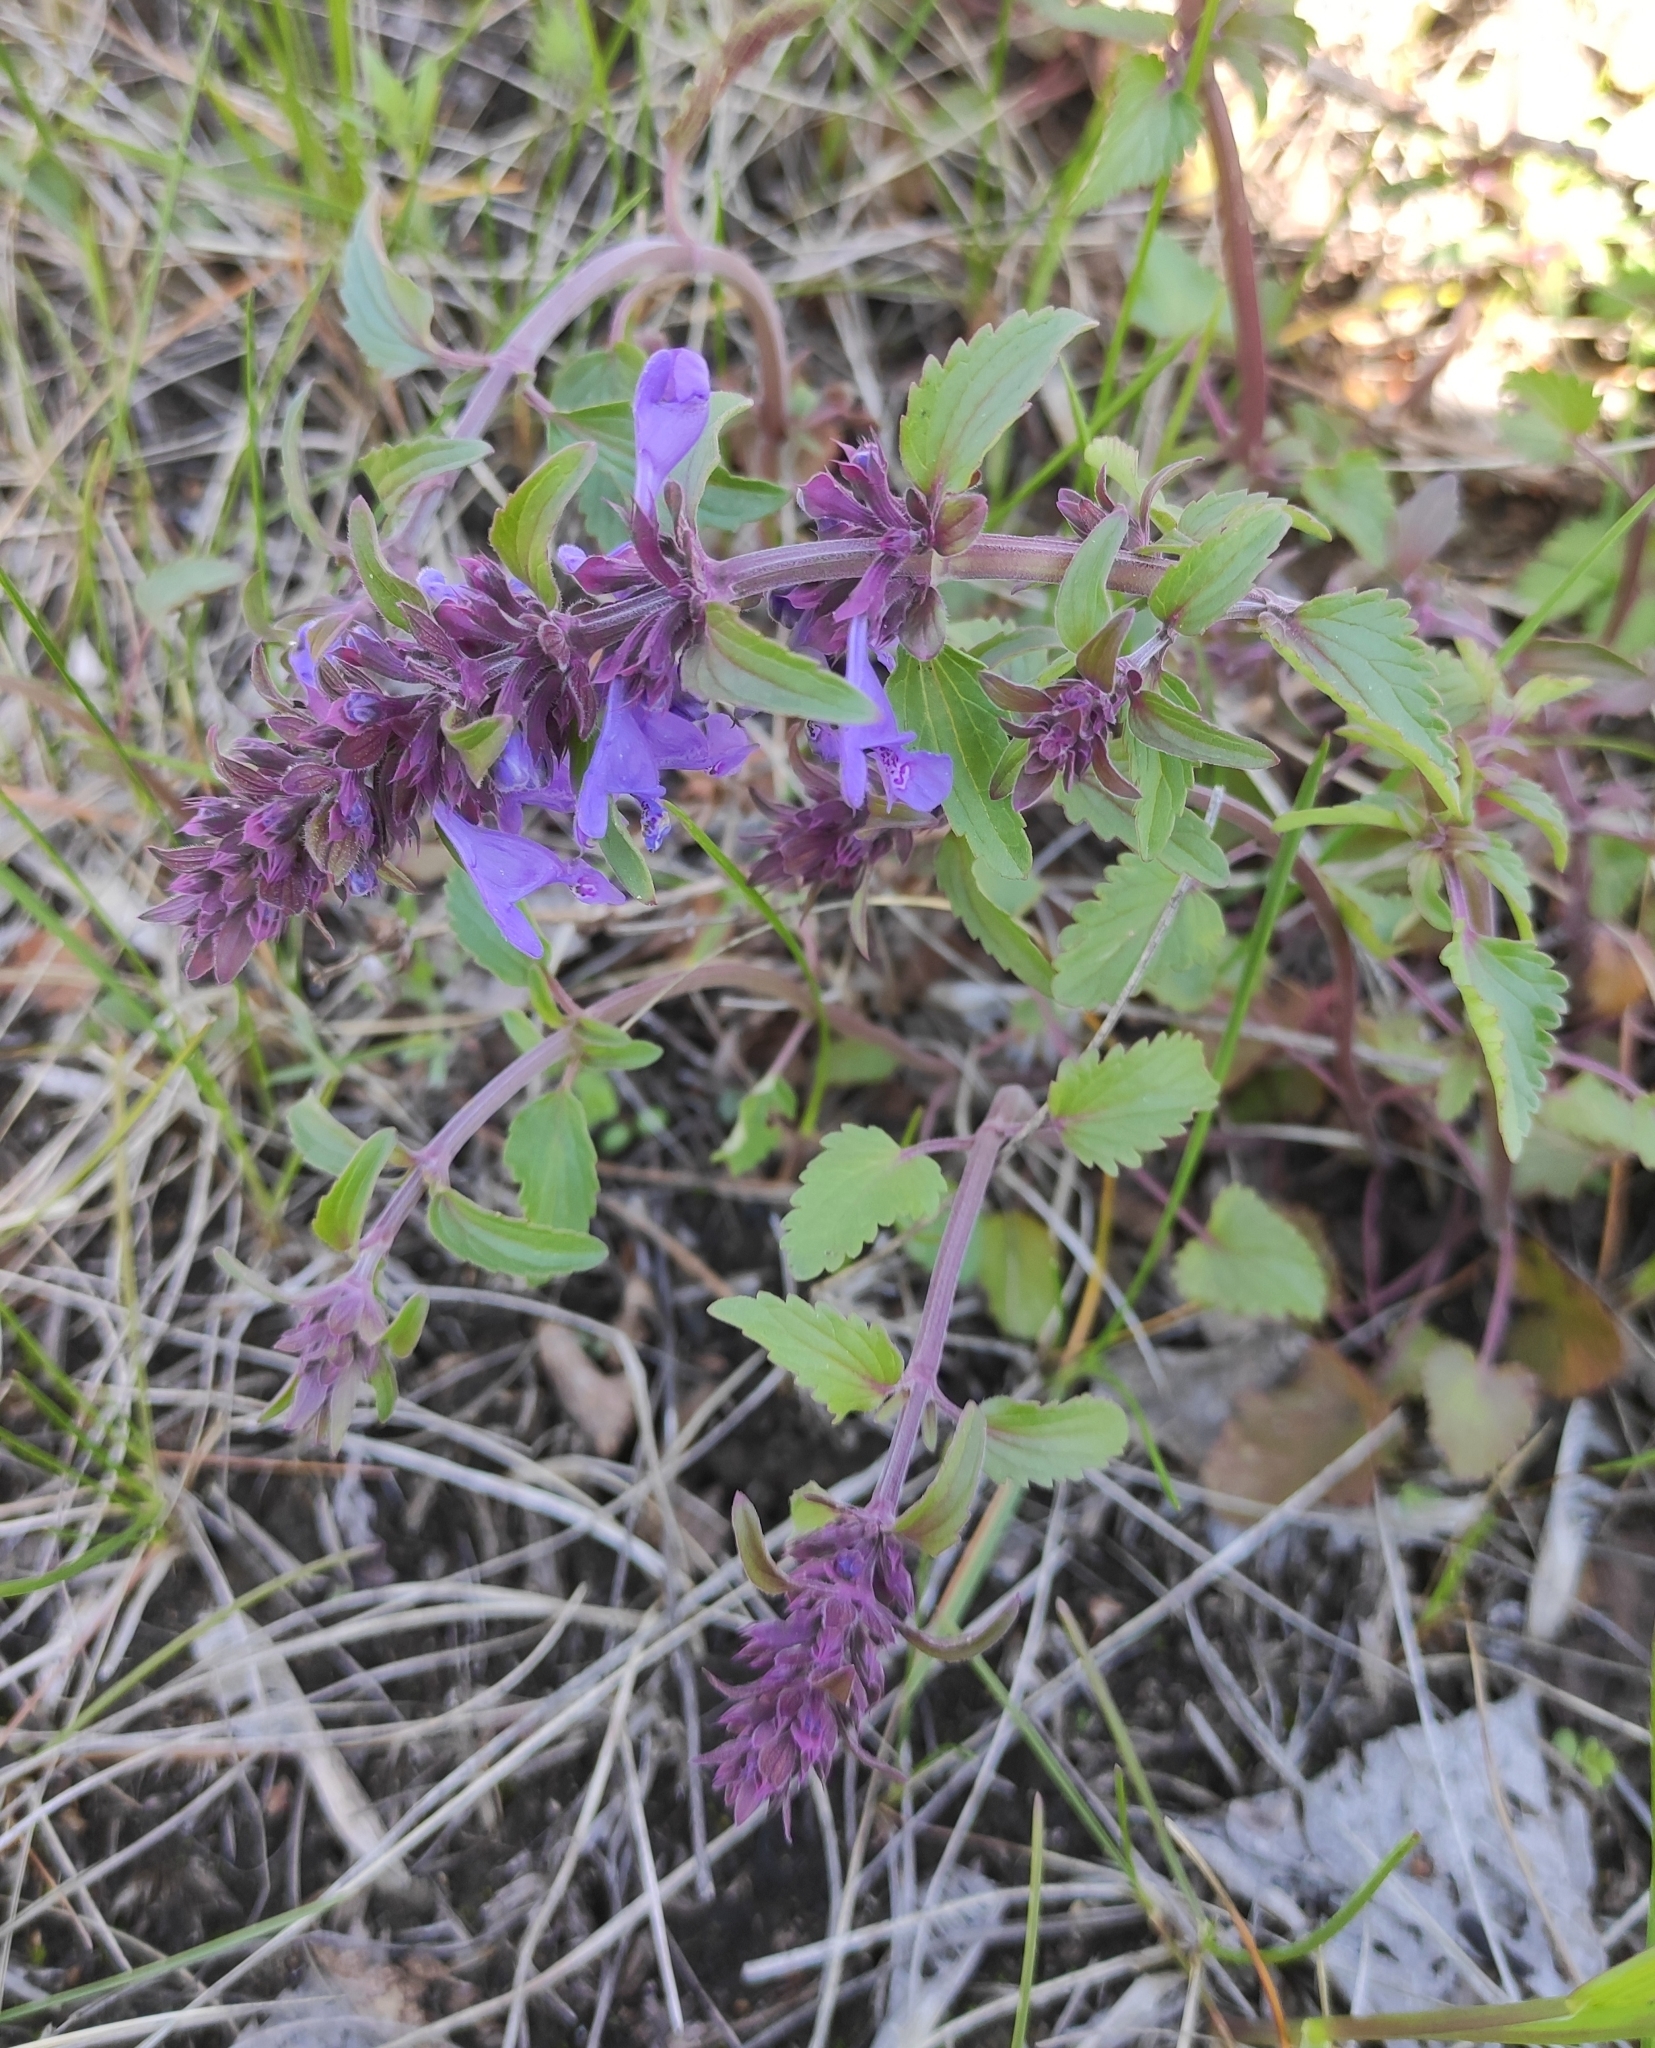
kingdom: Plantae
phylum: Tracheophyta
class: Magnoliopsida
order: Lamiales
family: Lamiaceae
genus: Dracocephalum
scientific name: Dracocephalum nutans
